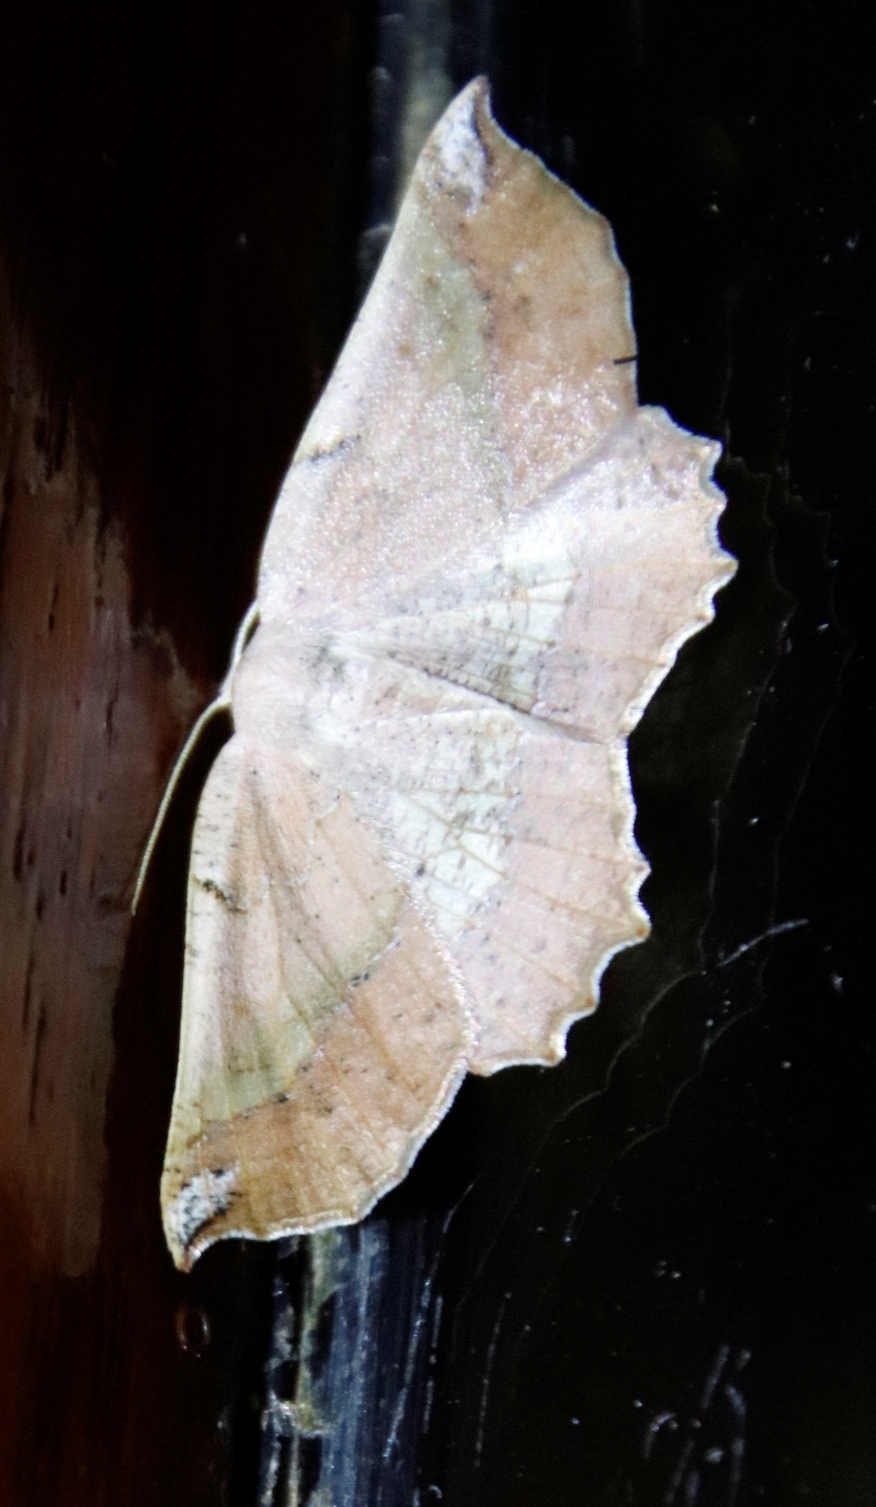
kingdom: Animalia
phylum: Arthropoda
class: Insecta
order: Lepidoptera
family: Geometridae
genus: Drepanogynis
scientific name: Drepanogynis mixtaria
